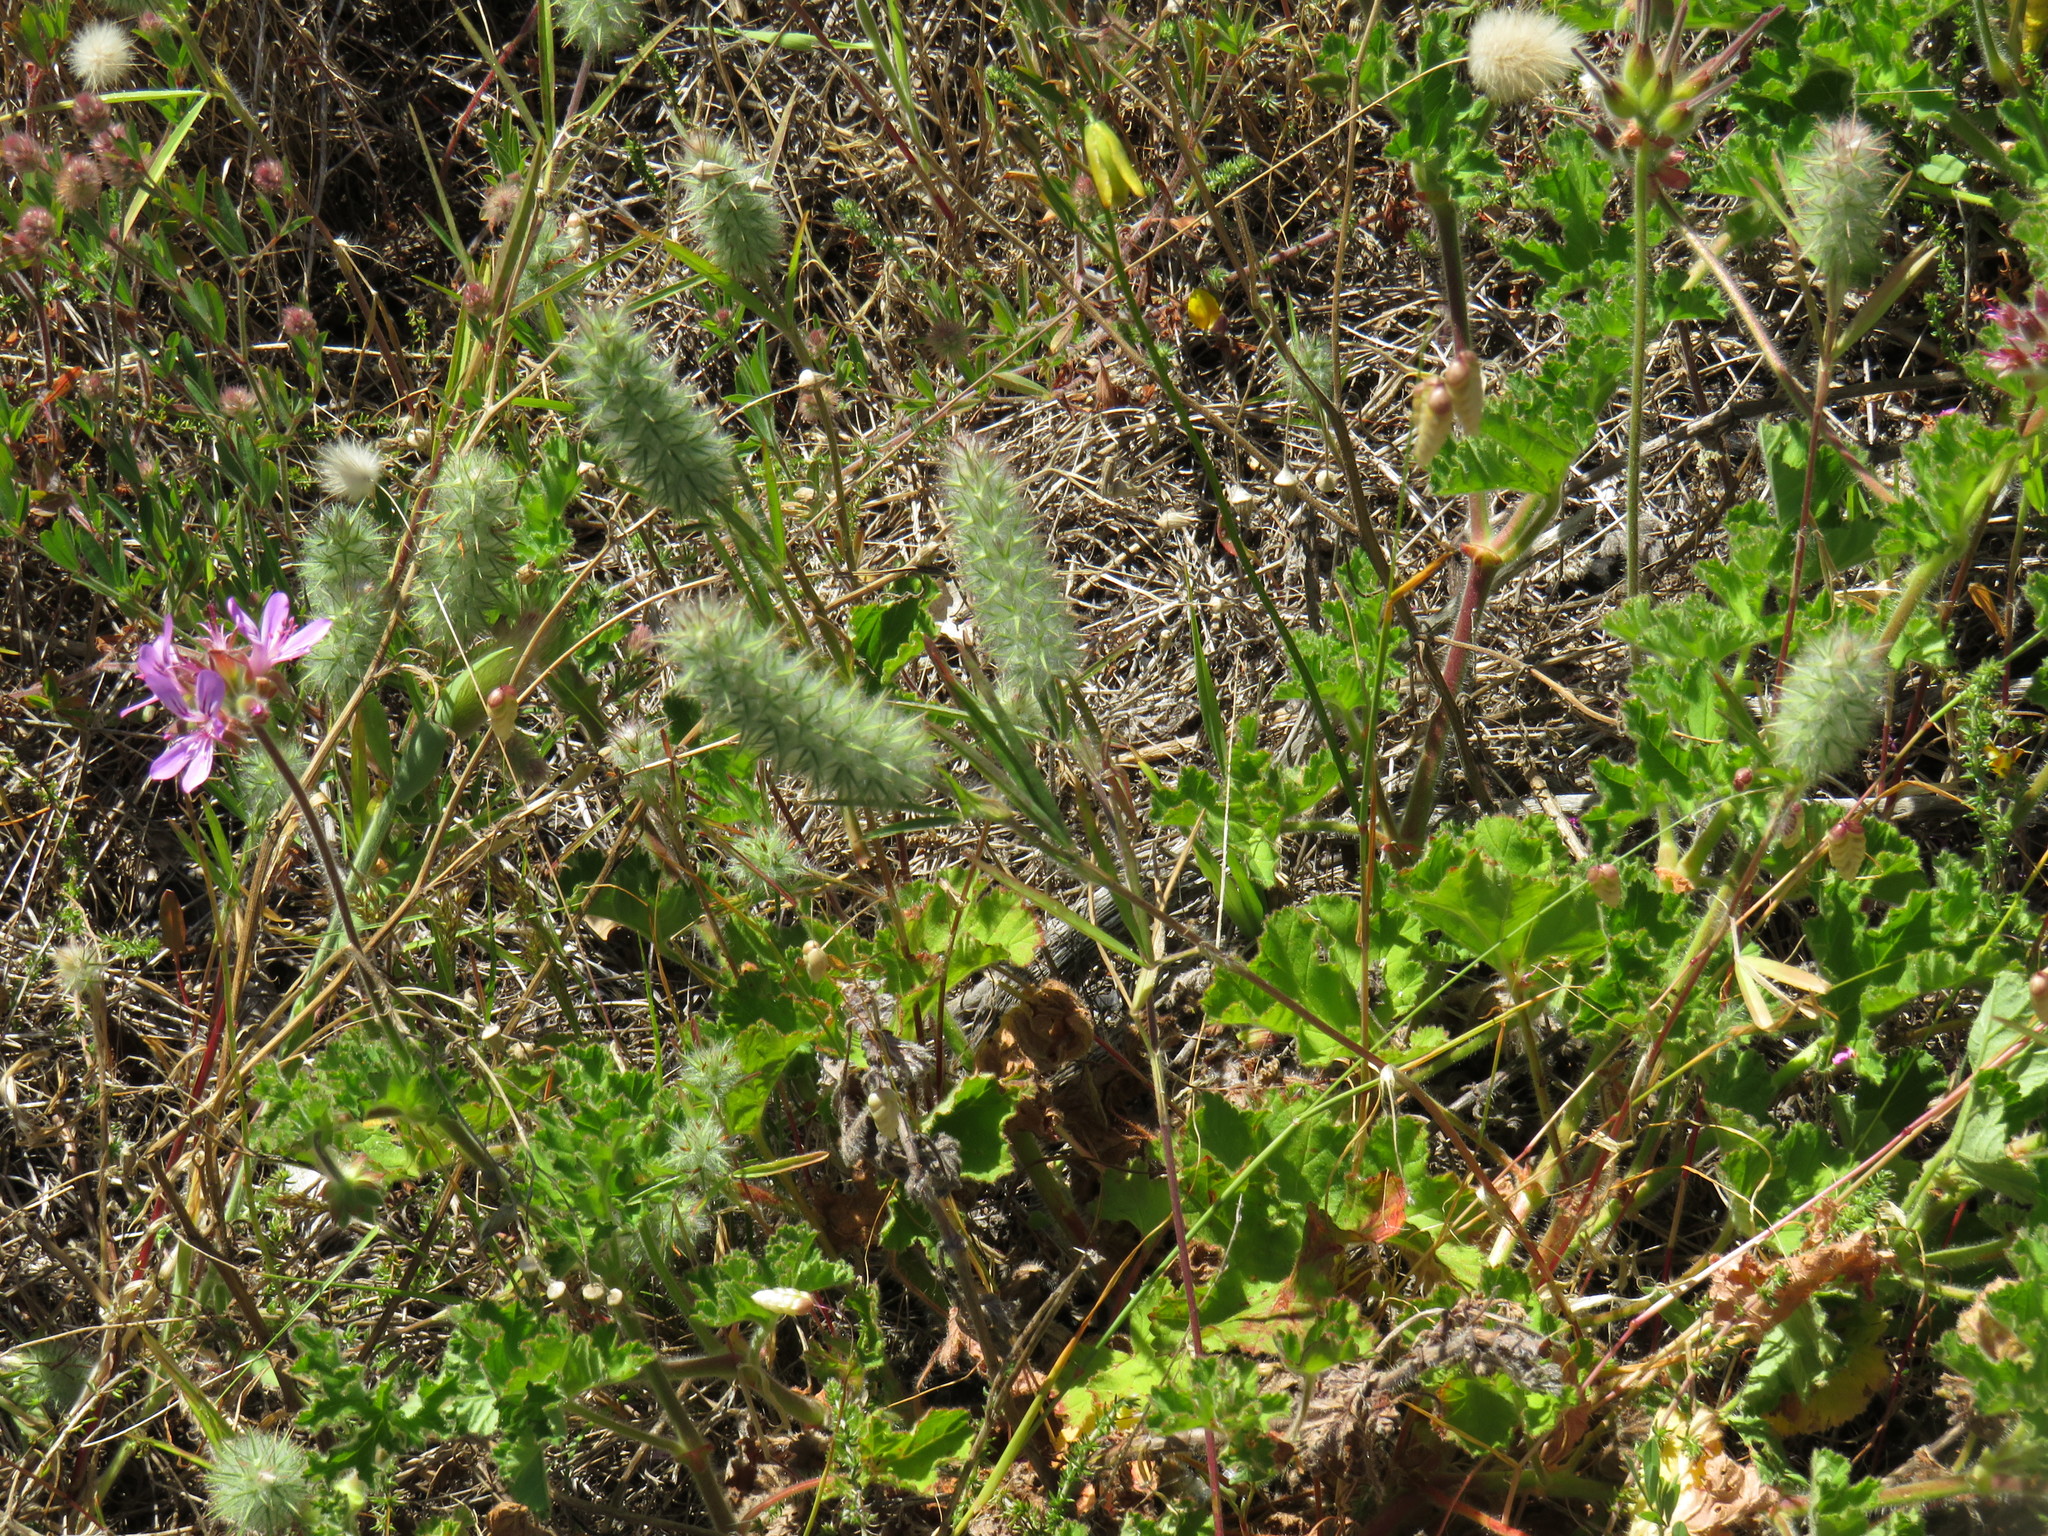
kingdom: Plantae
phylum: Tracheophyta
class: Magnoliopsida
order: Fabales
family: Fabaceae
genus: Trifolium
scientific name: Trifolium angustifolium
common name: Narrow clover
